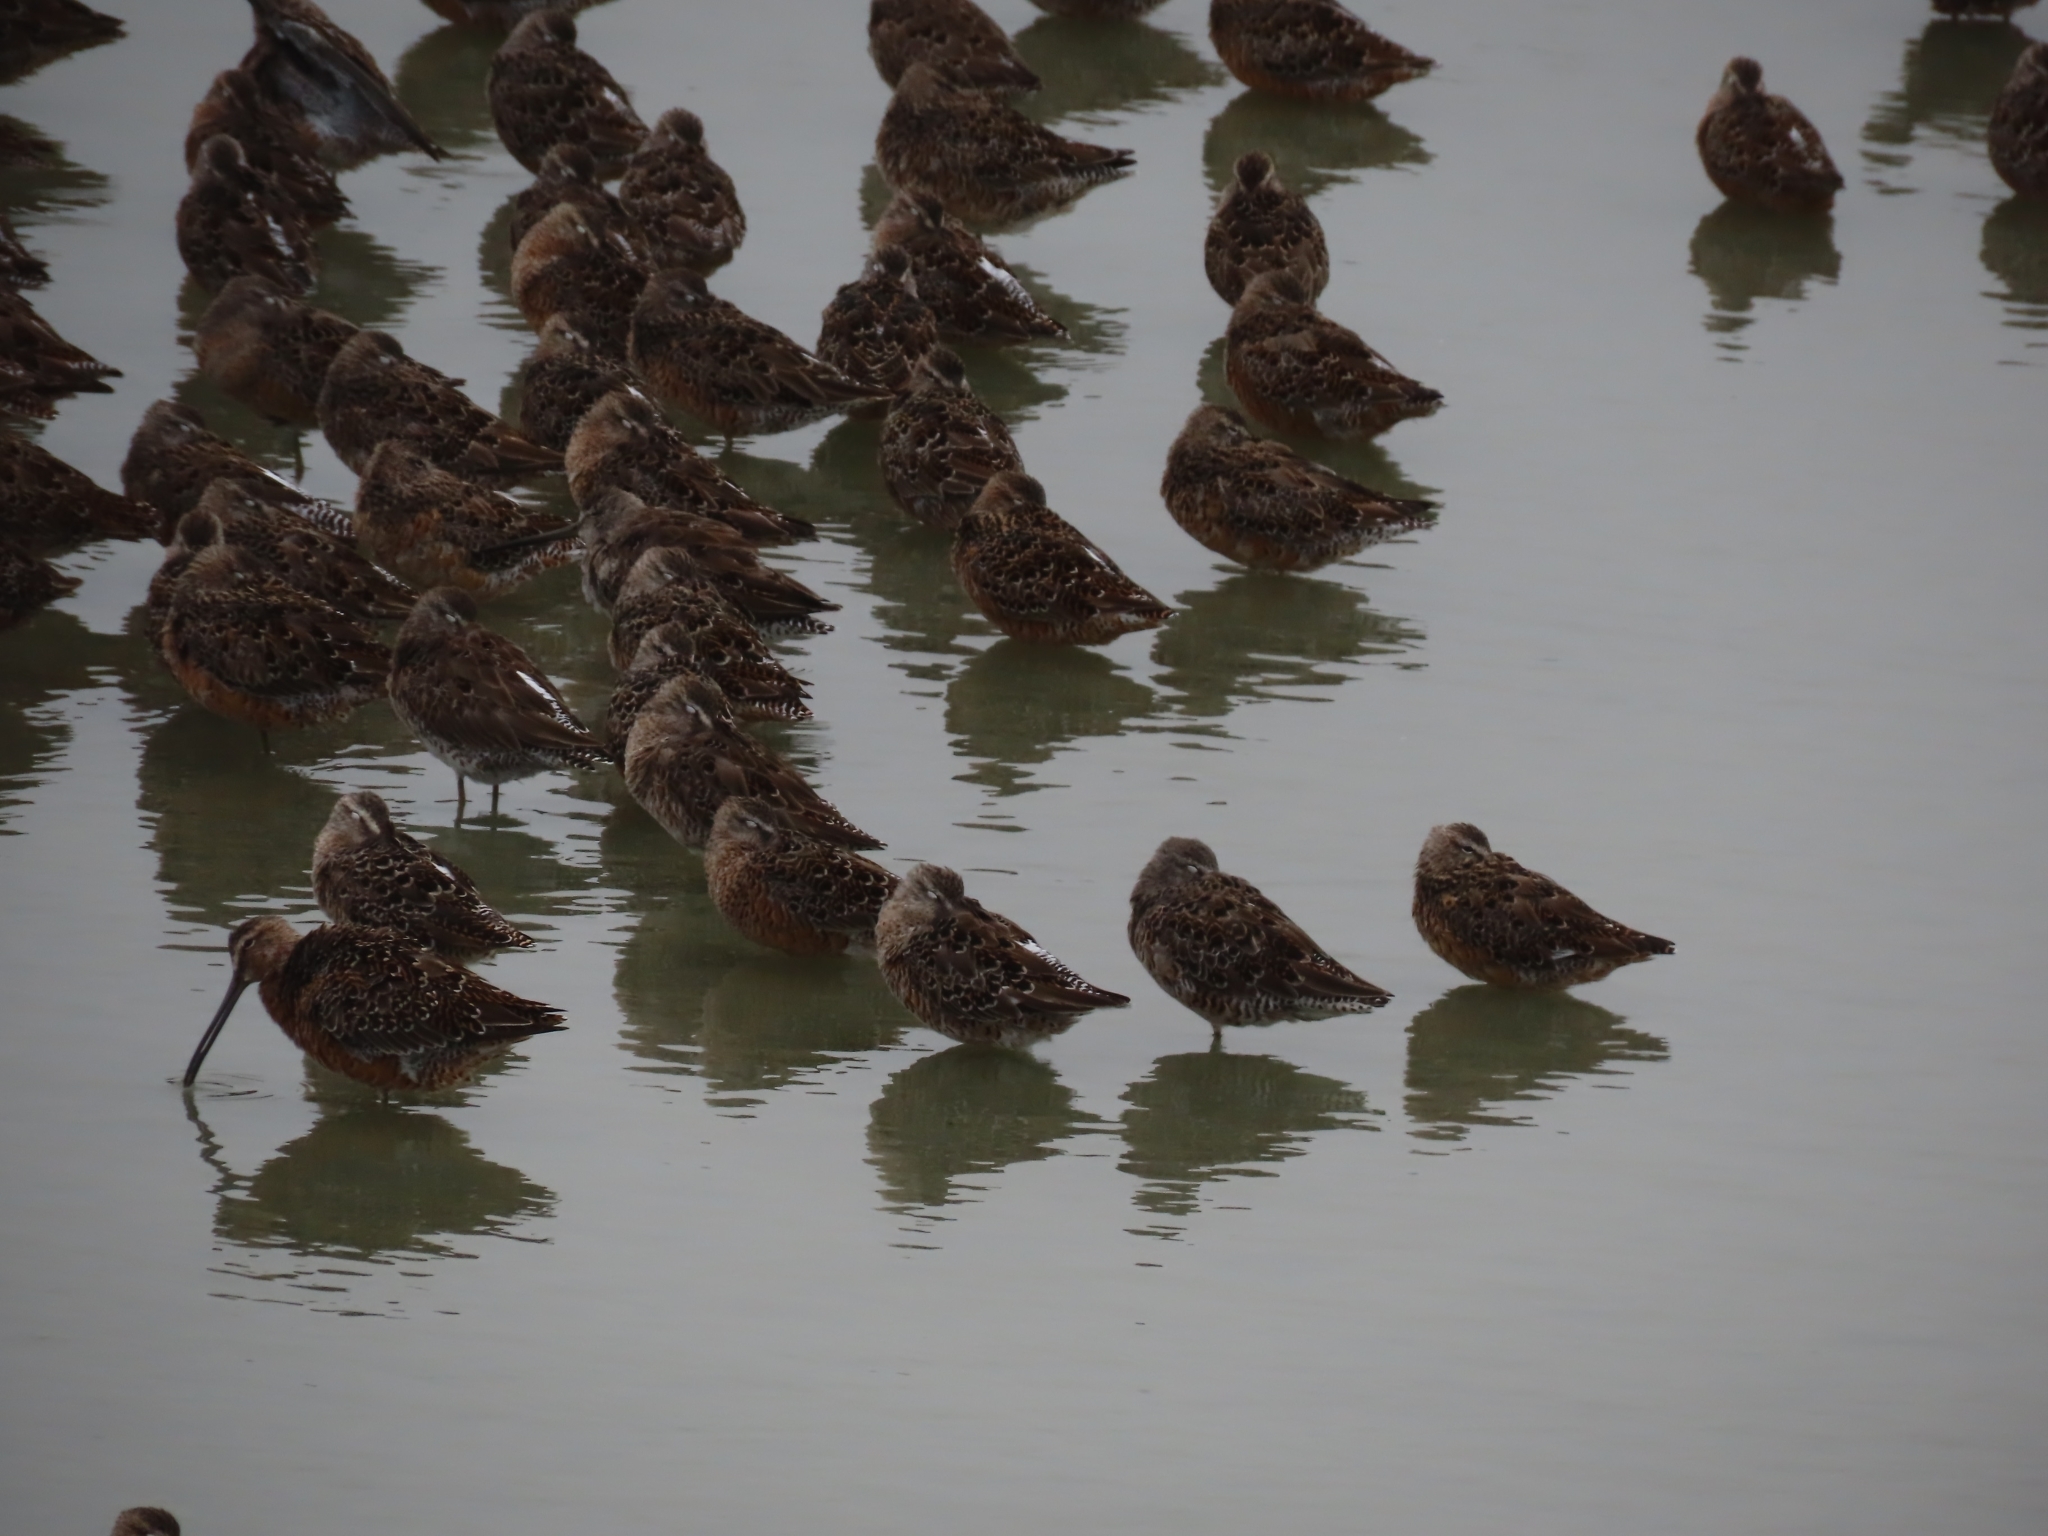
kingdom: Animalia
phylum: Chordata
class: Aves
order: Charadriiformes
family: Scolopacidae
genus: Limnodromus
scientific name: Limnodromus scolopaceus
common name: Long-billed dowitcher
